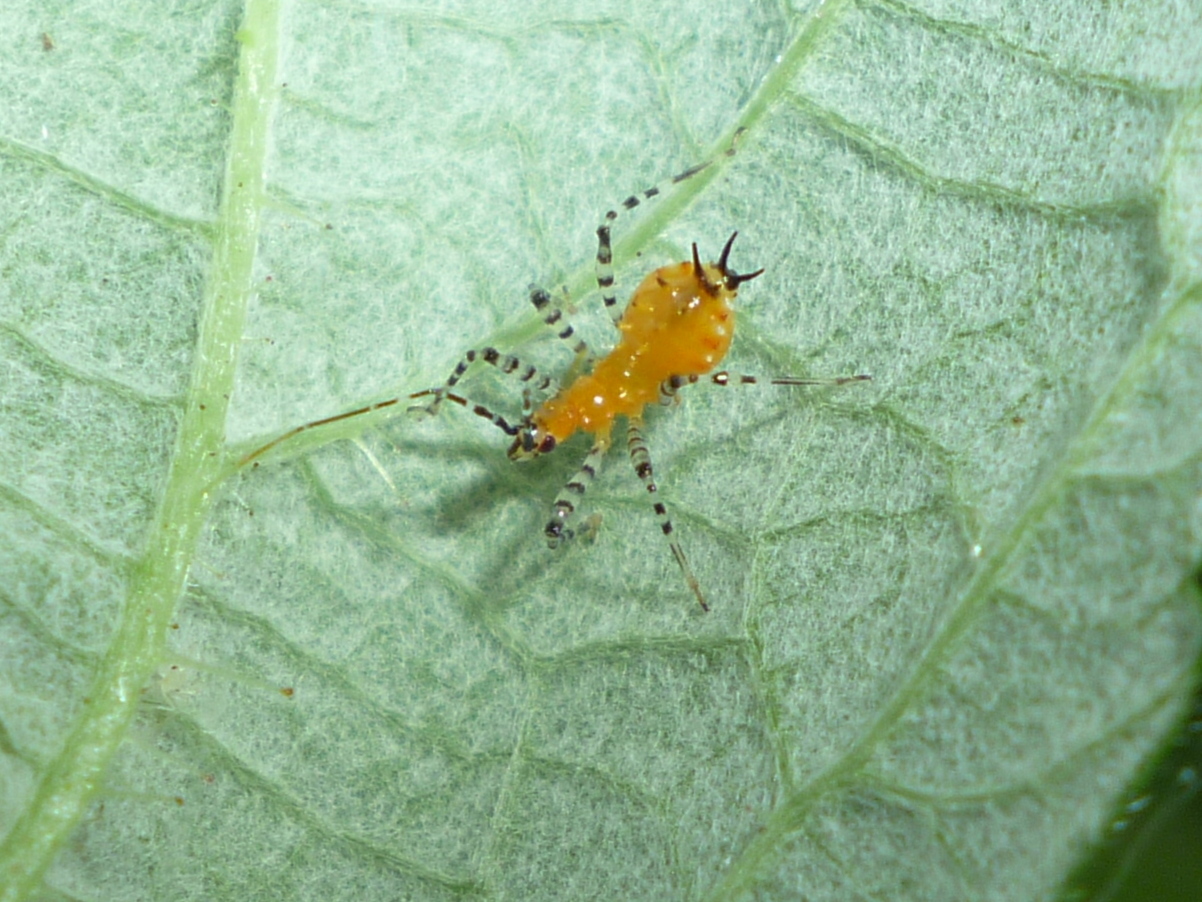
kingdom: Animalia
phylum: Arthropoda
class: Insecta
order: Hemiptera
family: Reduviidae
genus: Pselliopus
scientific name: Pselliopus cinctus
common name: Ringed assassin bug
